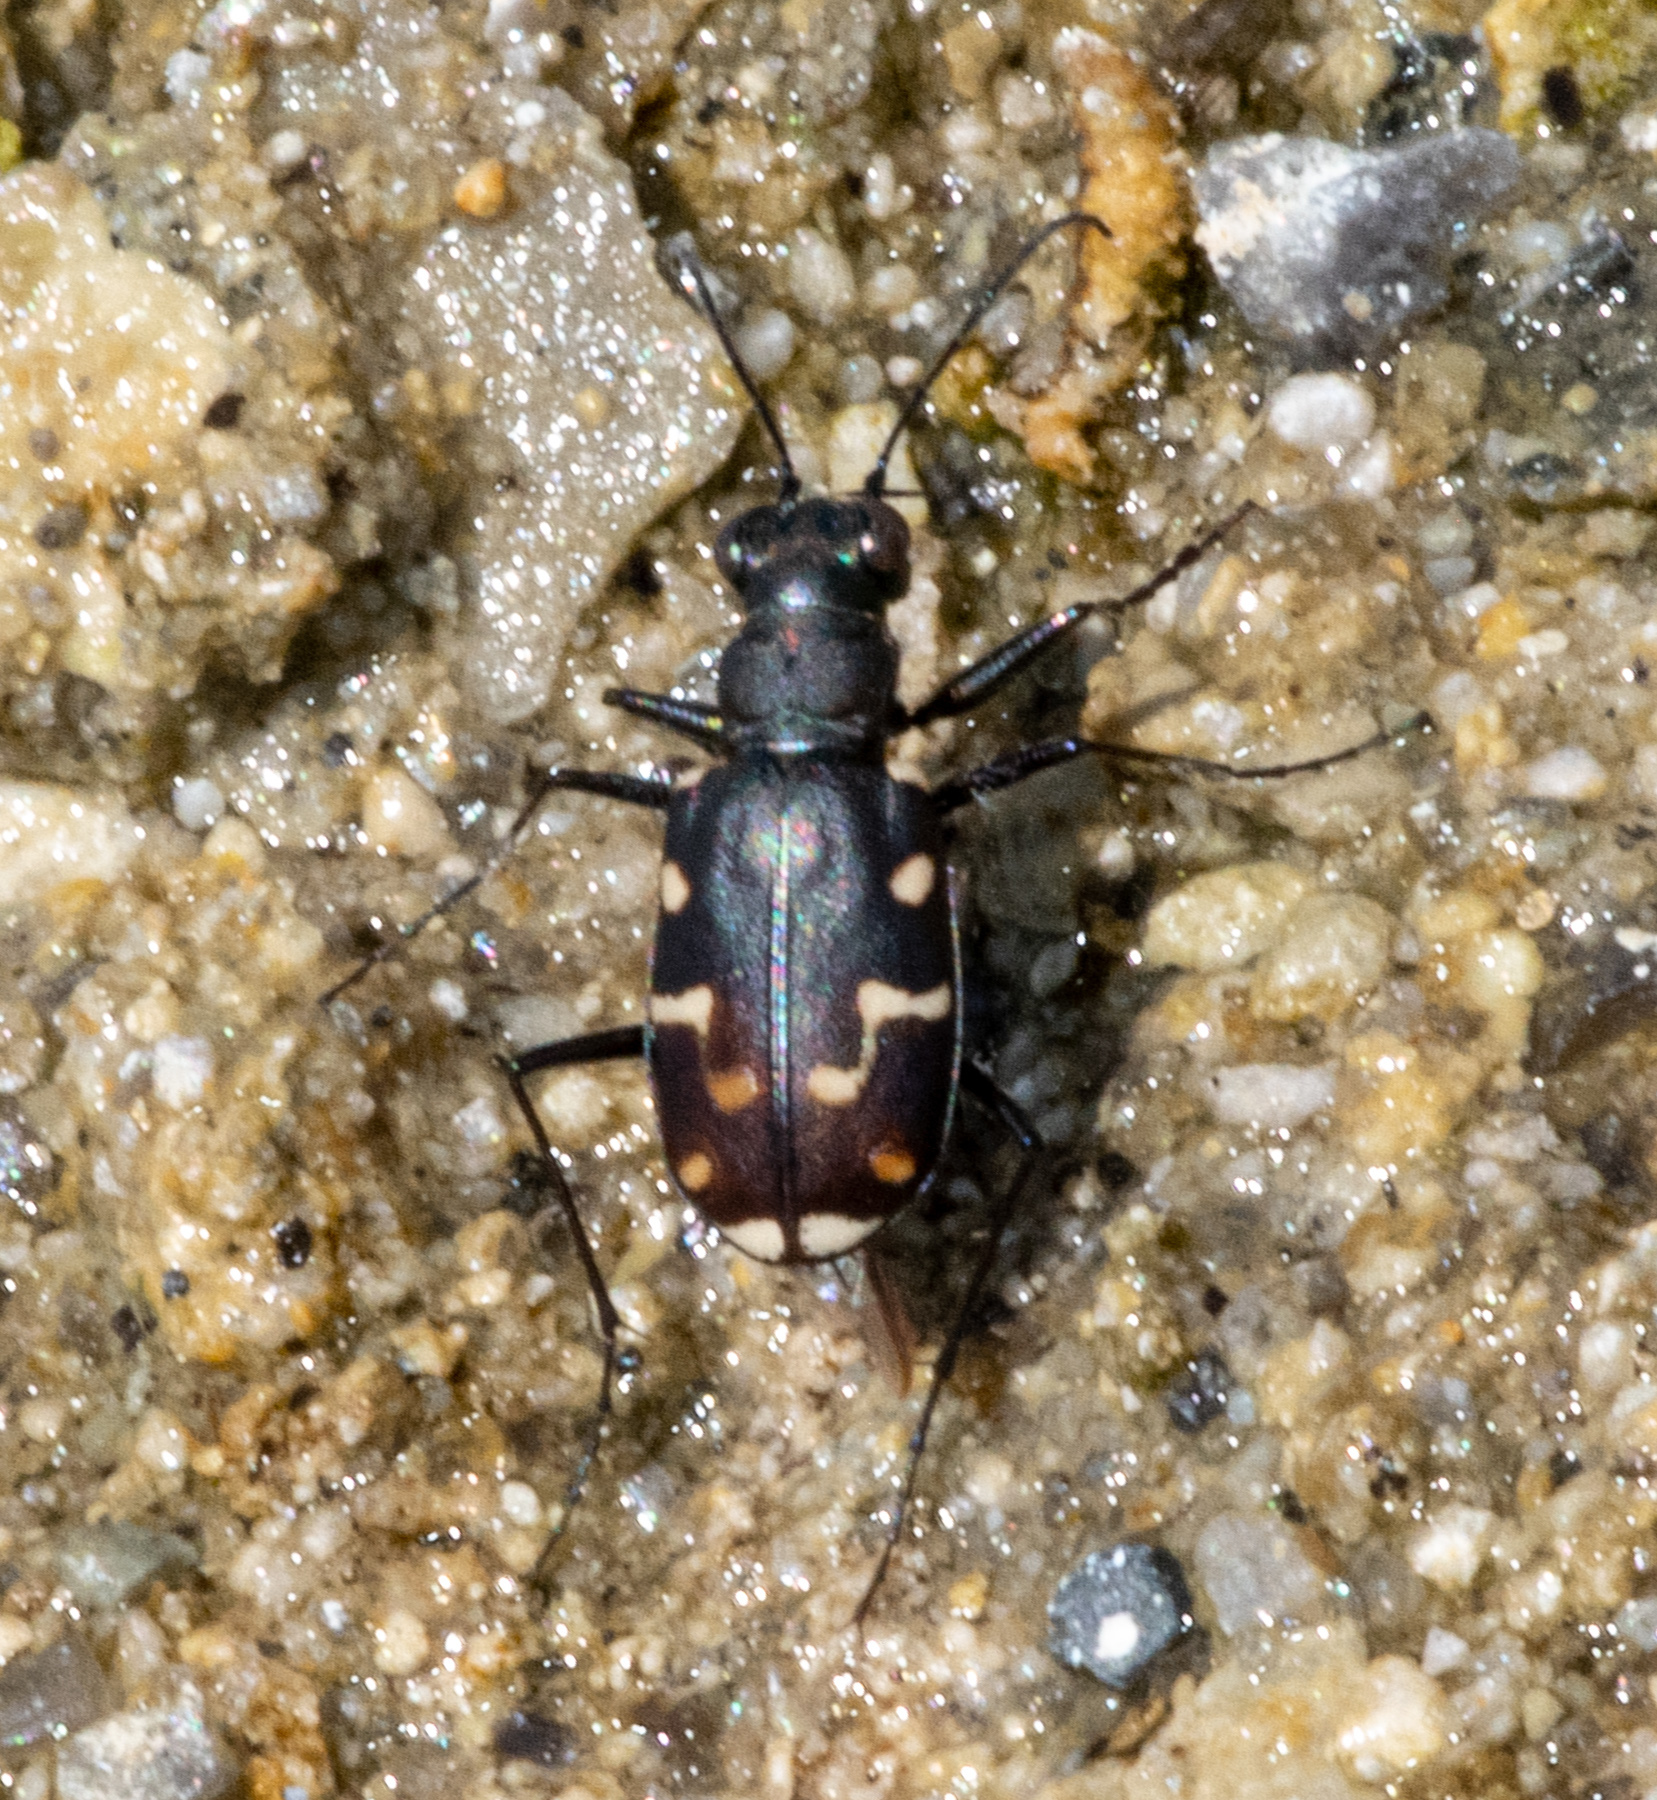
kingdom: Animalia
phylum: Arthropoda
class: Insecta
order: Coleoptera
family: Carabidae
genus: Cicindela
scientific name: Cicindela oregona
